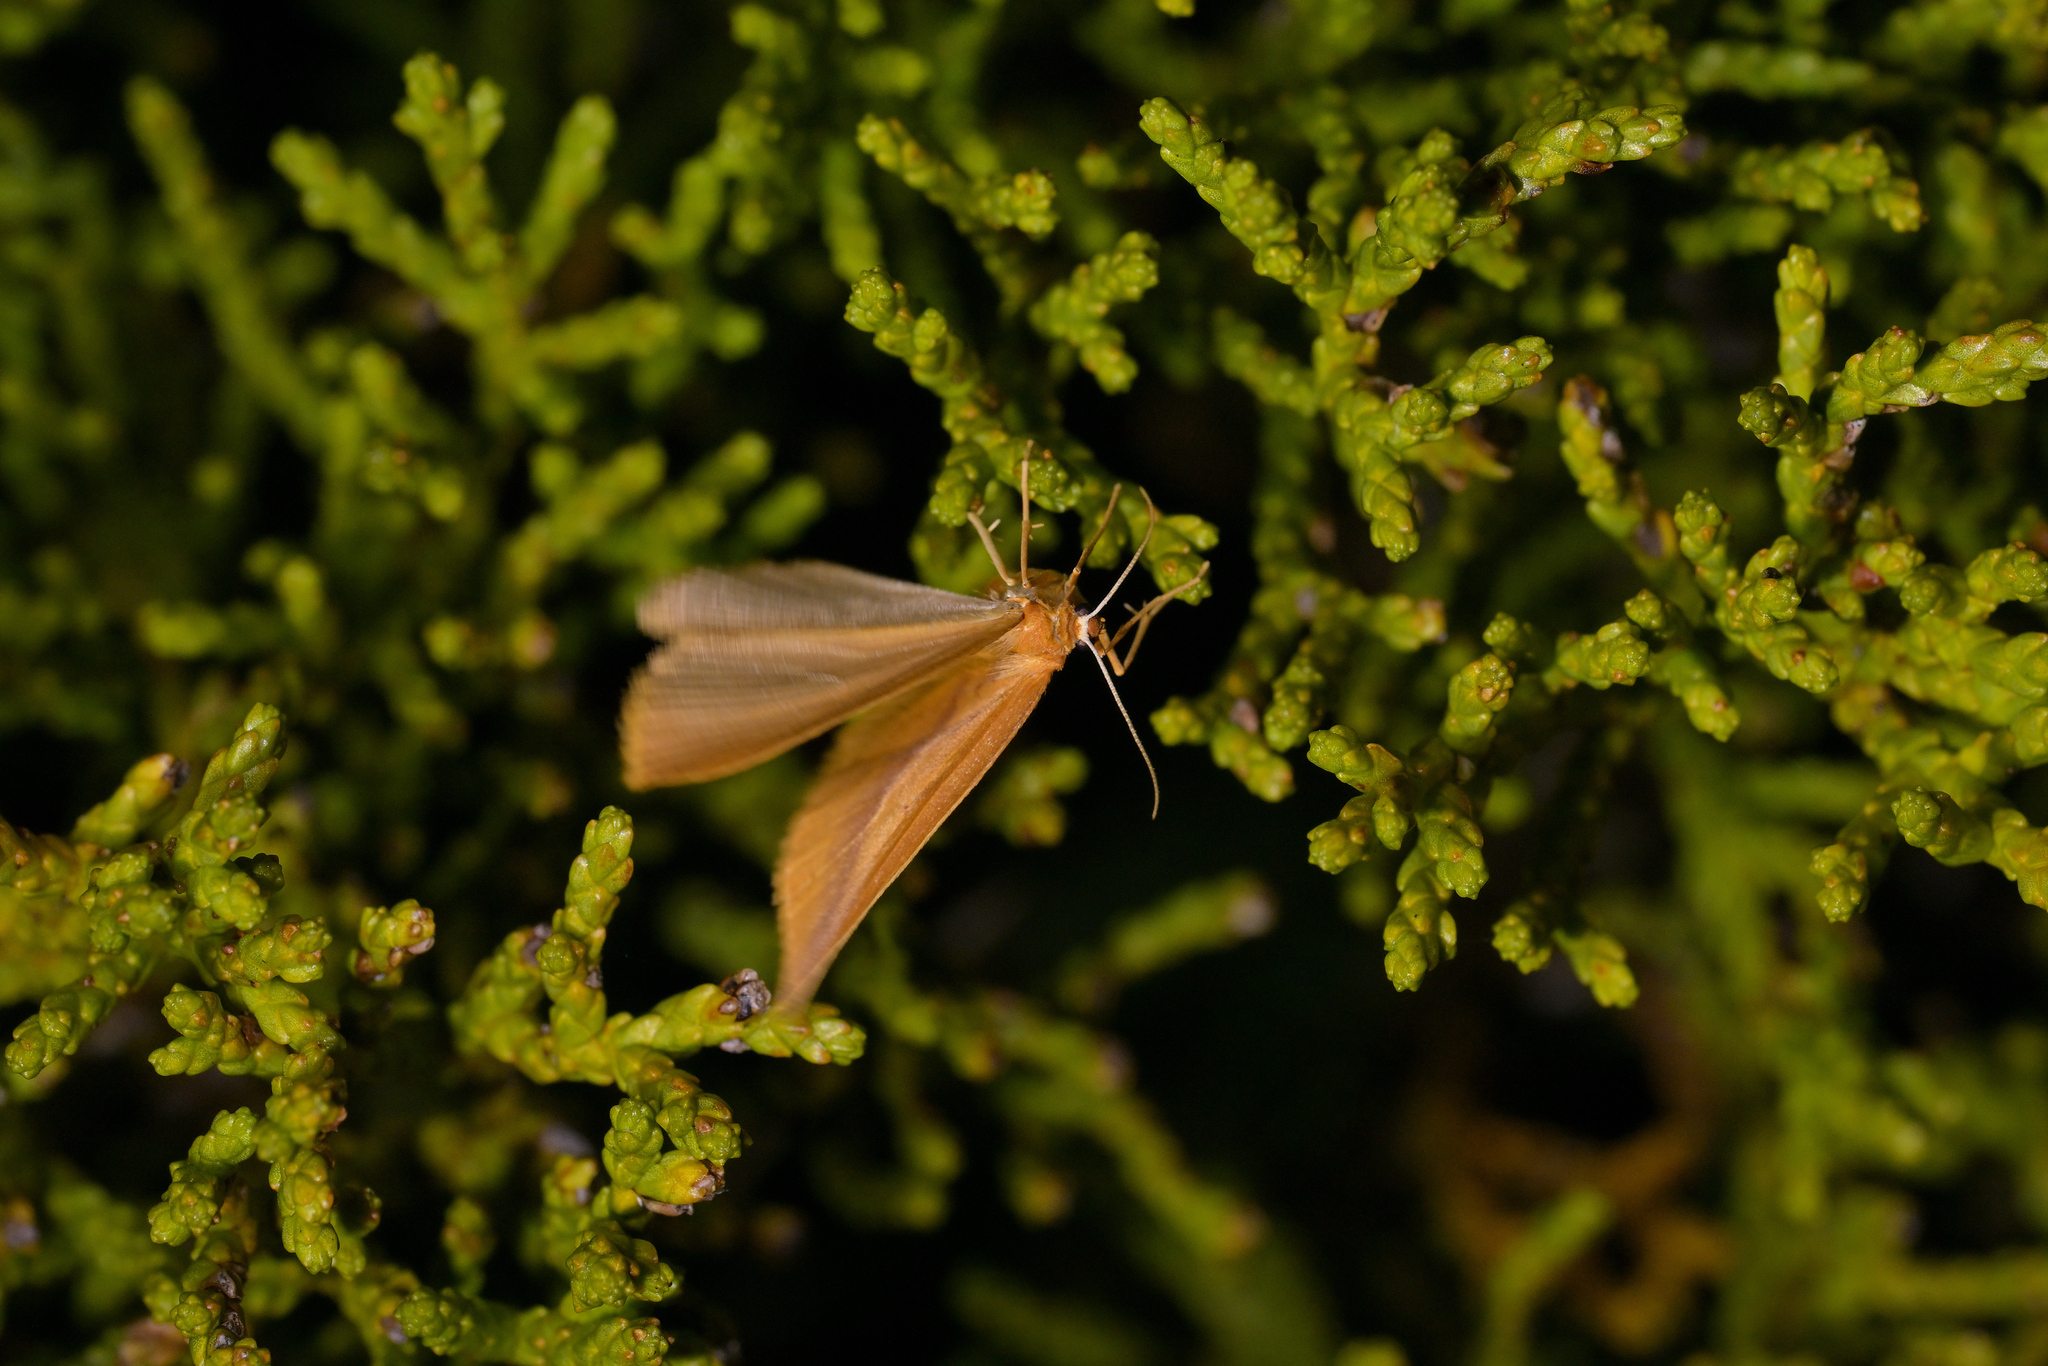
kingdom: Animalia
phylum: Arthropoda
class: Insecta
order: Lepidoptera
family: Geometridae
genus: Epiphryne
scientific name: Epiphryne charidema
